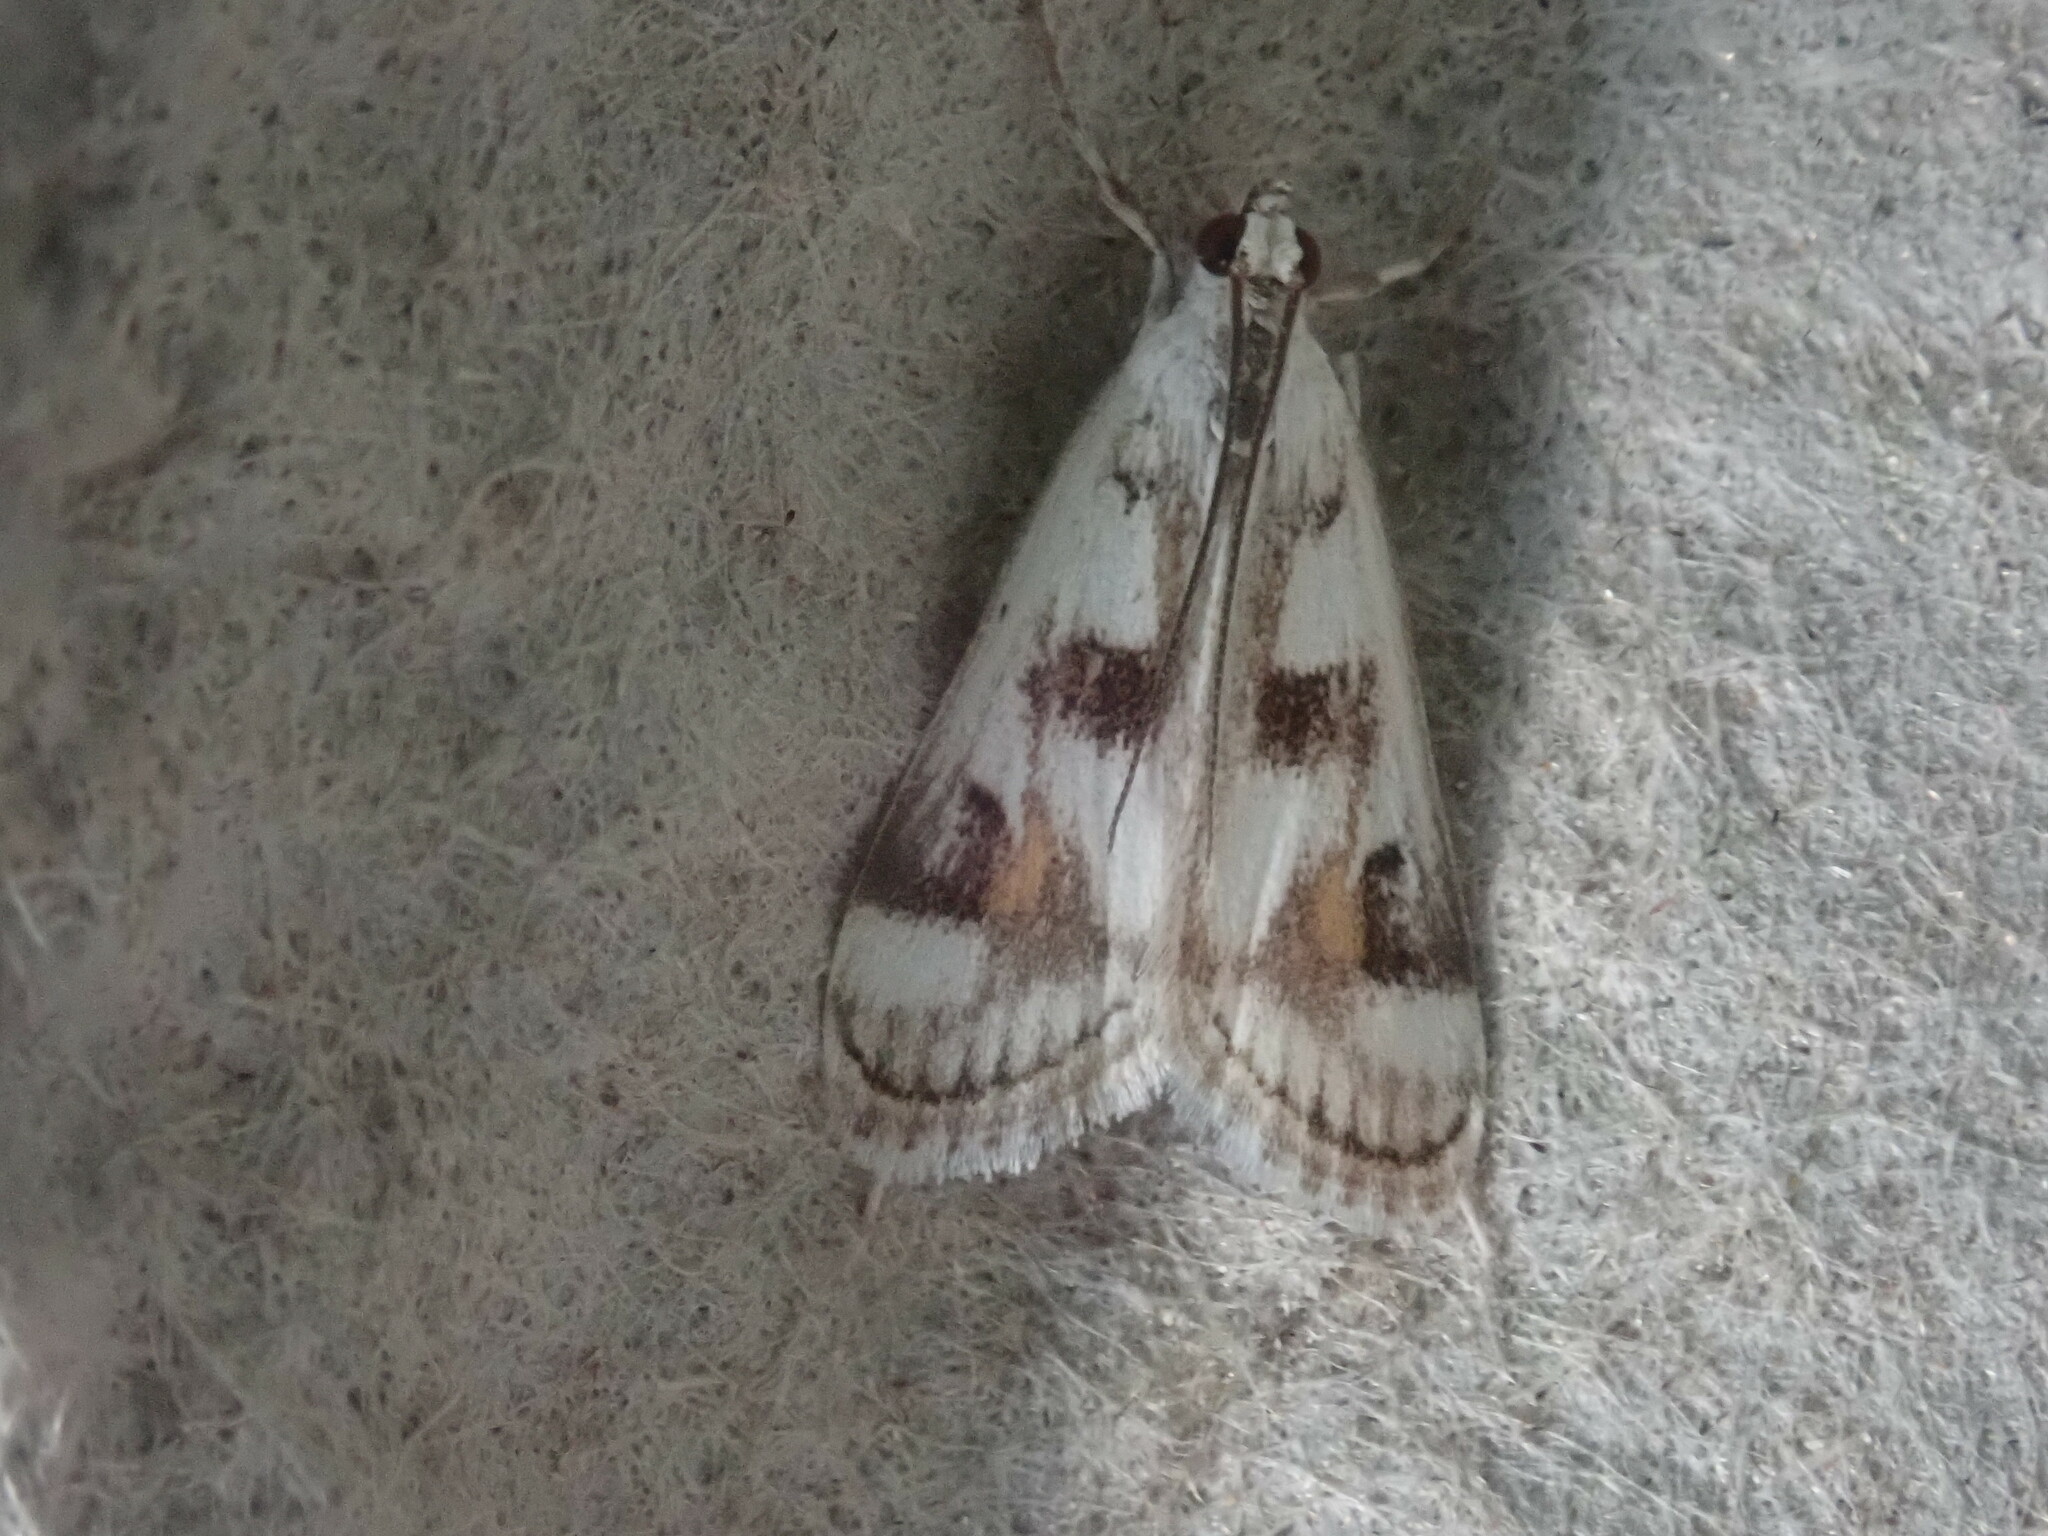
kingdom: Animalia
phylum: Arthropoda
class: Insecta
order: Lepidoptera
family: Crambidae
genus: Parapoynx
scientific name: Parapoynx maculalis
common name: Polymorphic pondweed moth
